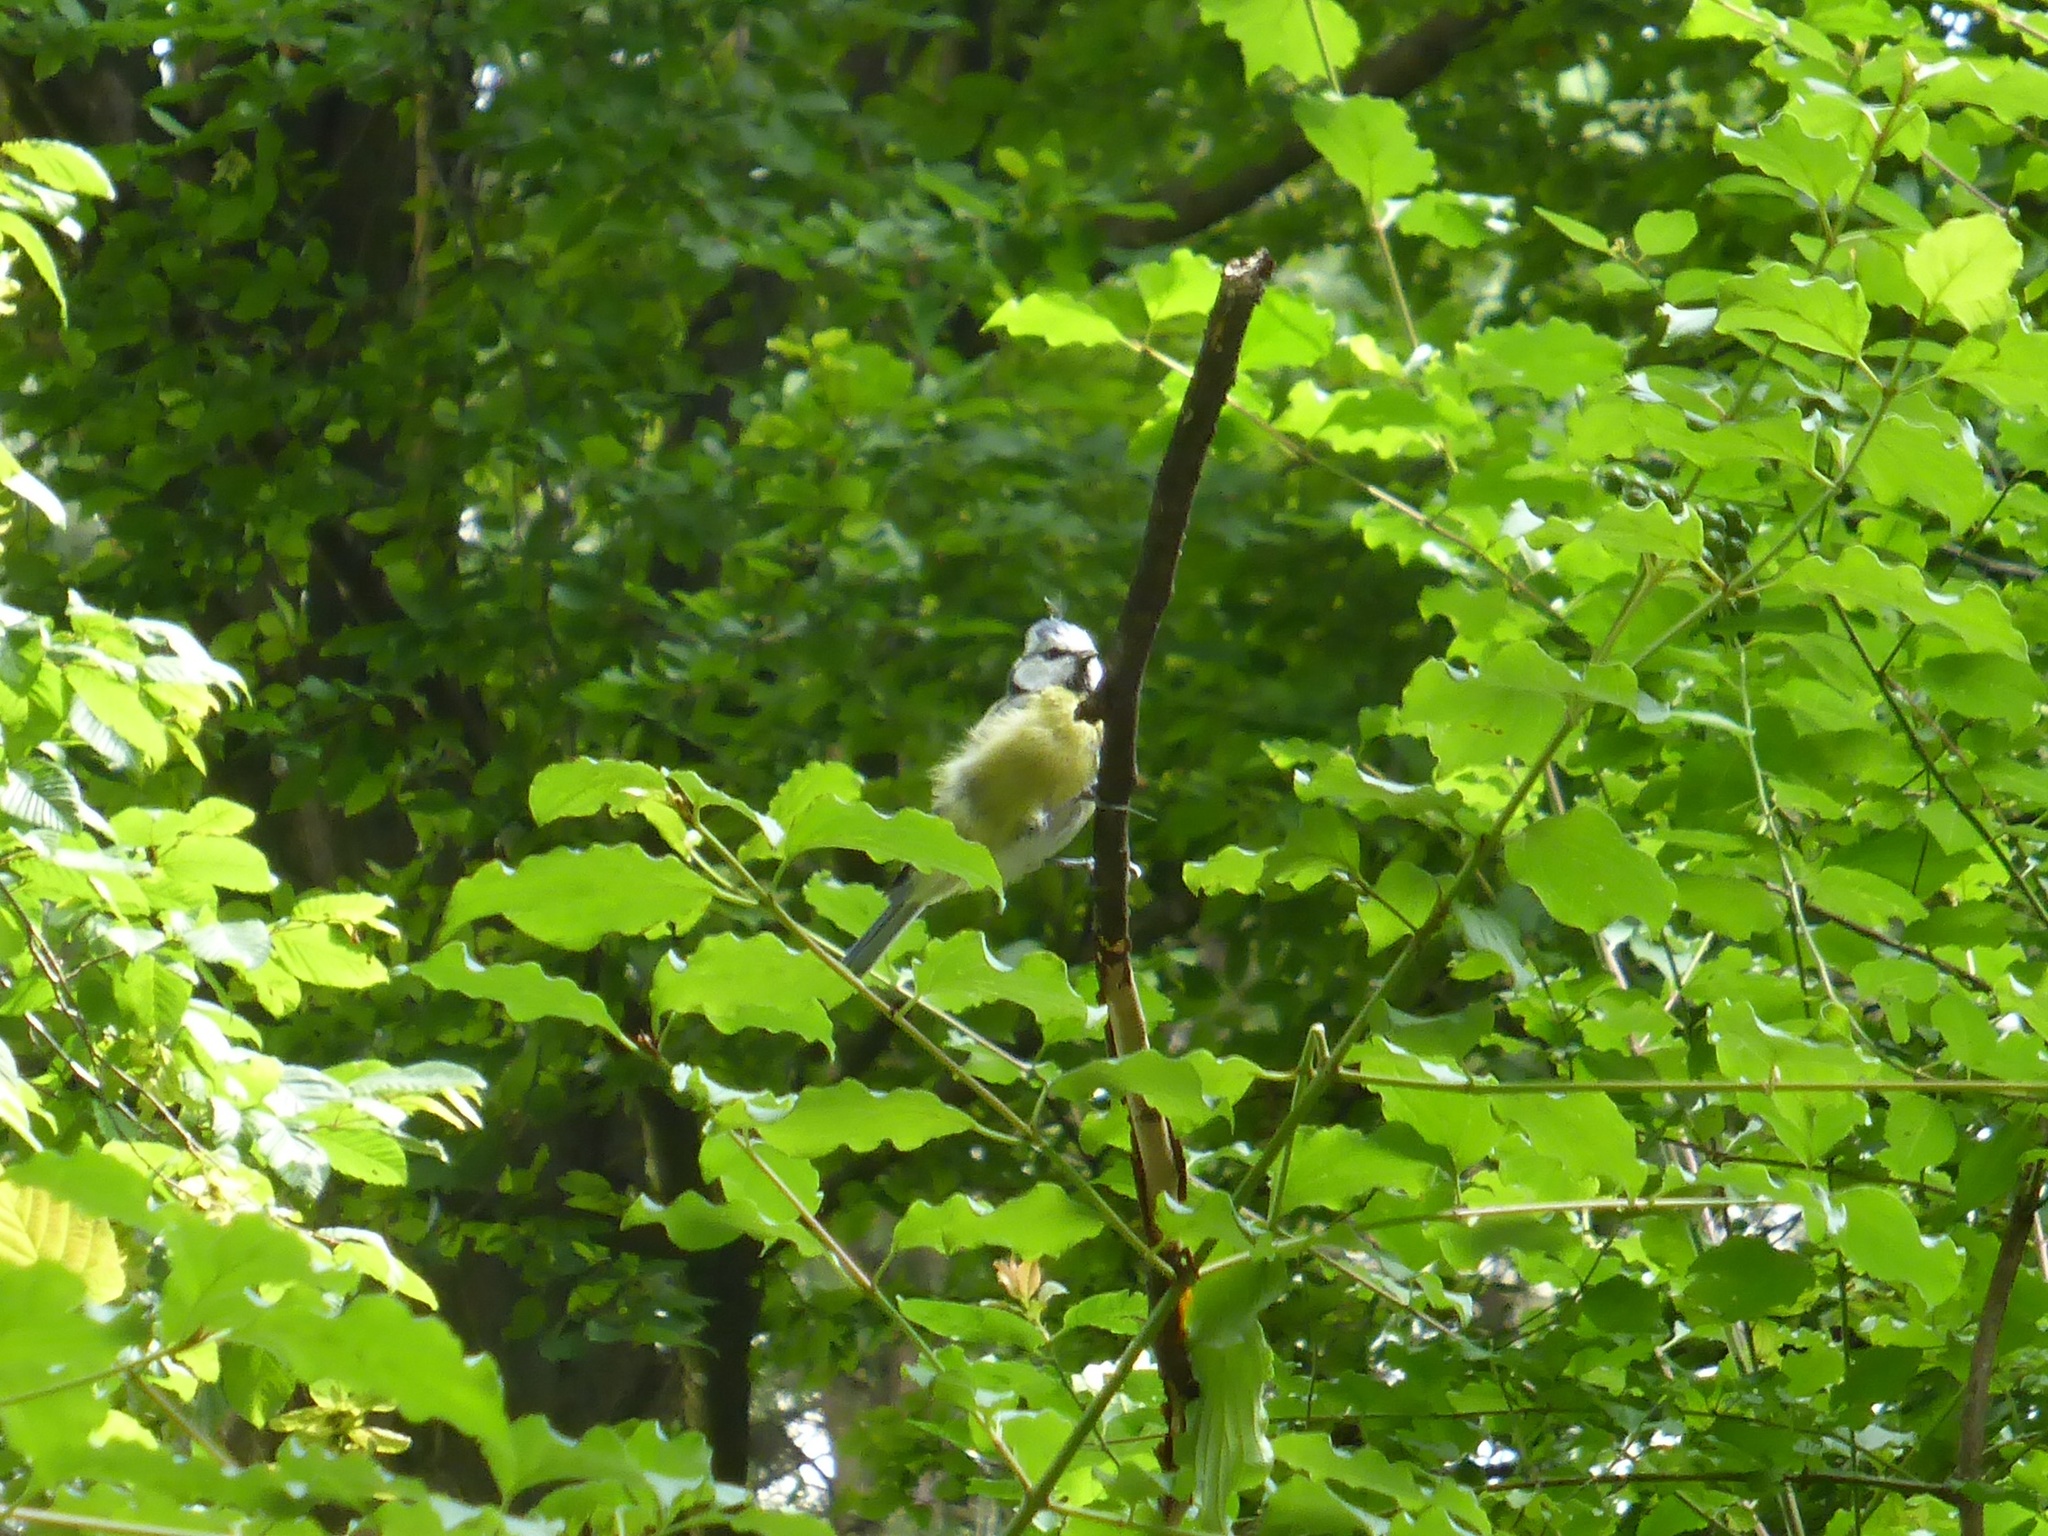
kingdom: Animalia
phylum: Chordata
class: Aves
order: Passeriformes
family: Paridae
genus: Cyanistes
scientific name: Cyanistes caeruleus
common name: Eurasian blue tit
